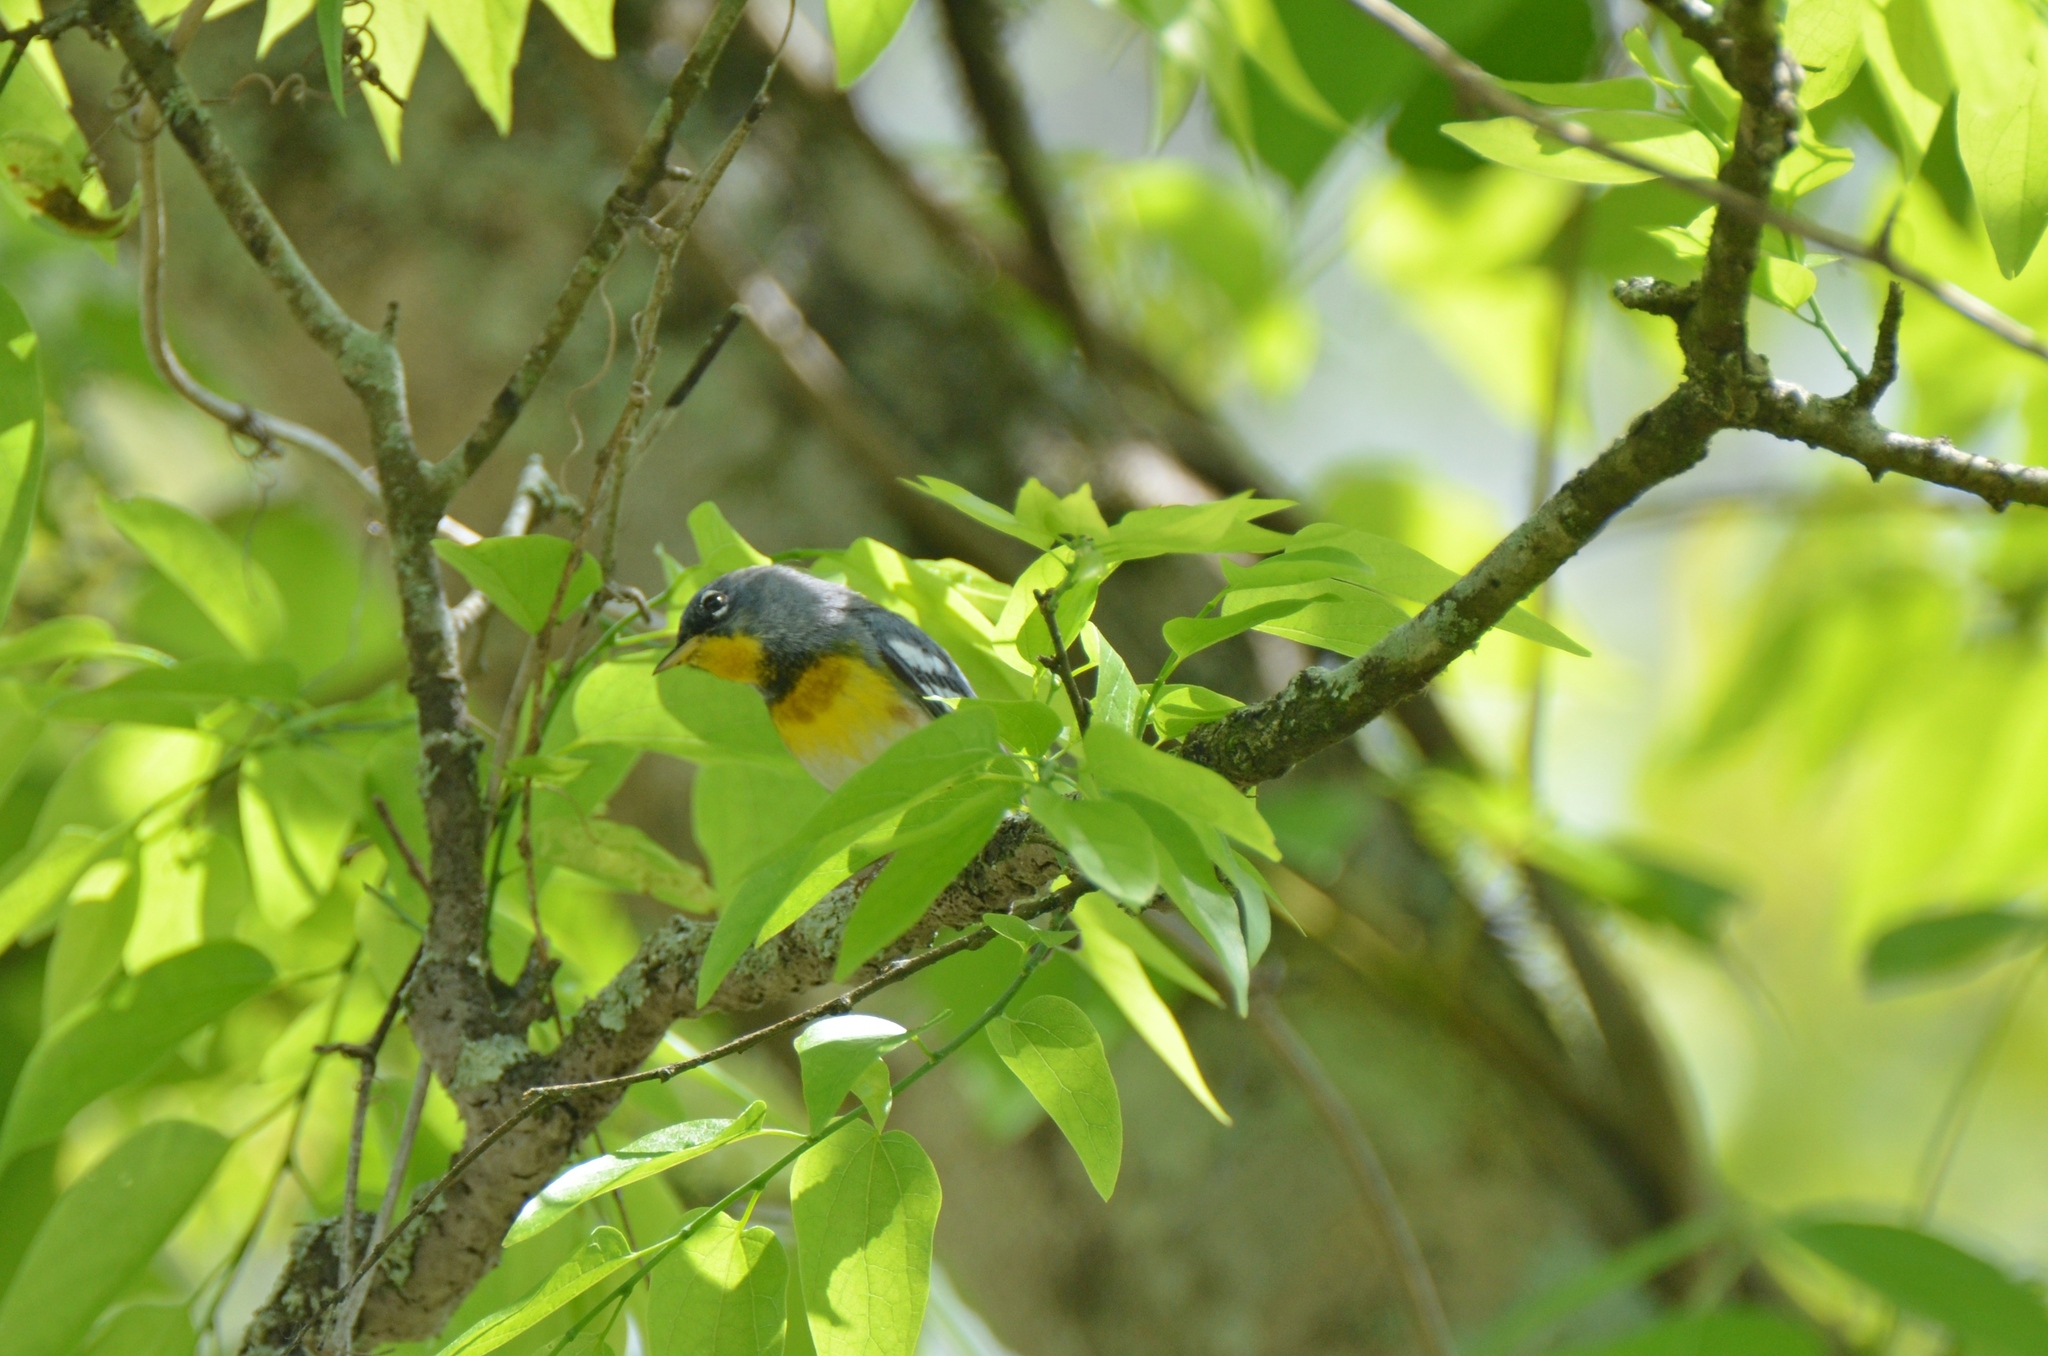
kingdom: Animalia
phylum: Chordata
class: Aves
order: Passeriformes
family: Parulidae
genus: Setophaga
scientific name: Setophaga americana
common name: Northern parula
